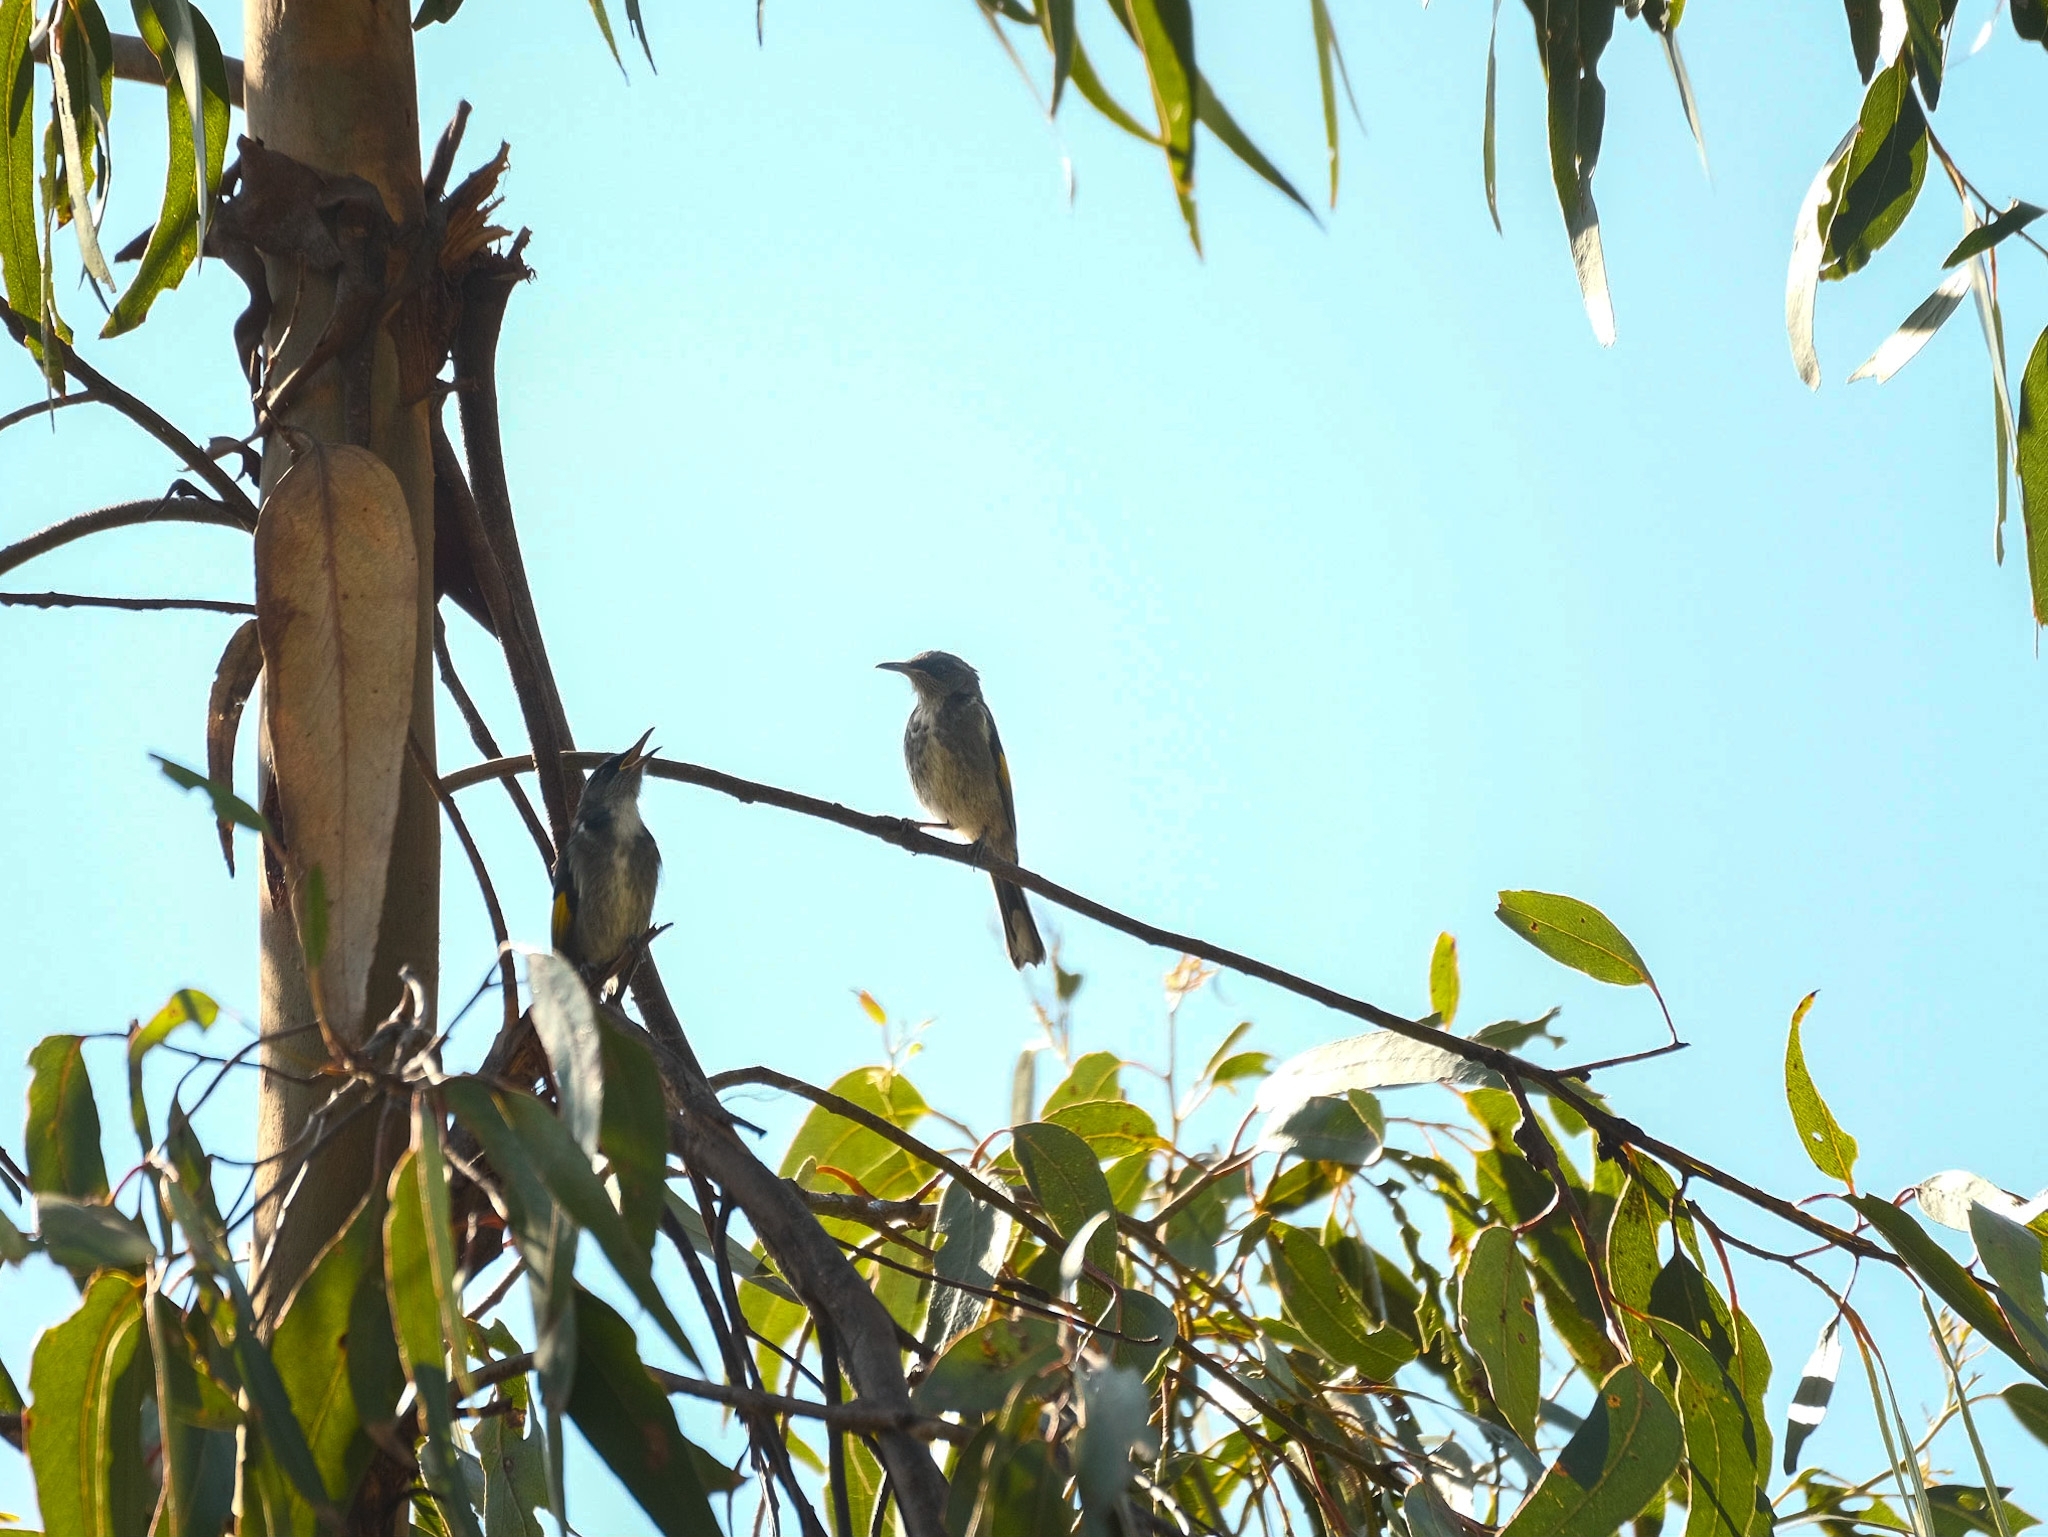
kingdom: Animalia
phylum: Chordata
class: Aves
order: Passeriformes
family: Meliphagidae
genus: Phylidonyris
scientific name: Phylidonyris pyrrhopterus
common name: Crescent honeyeater
